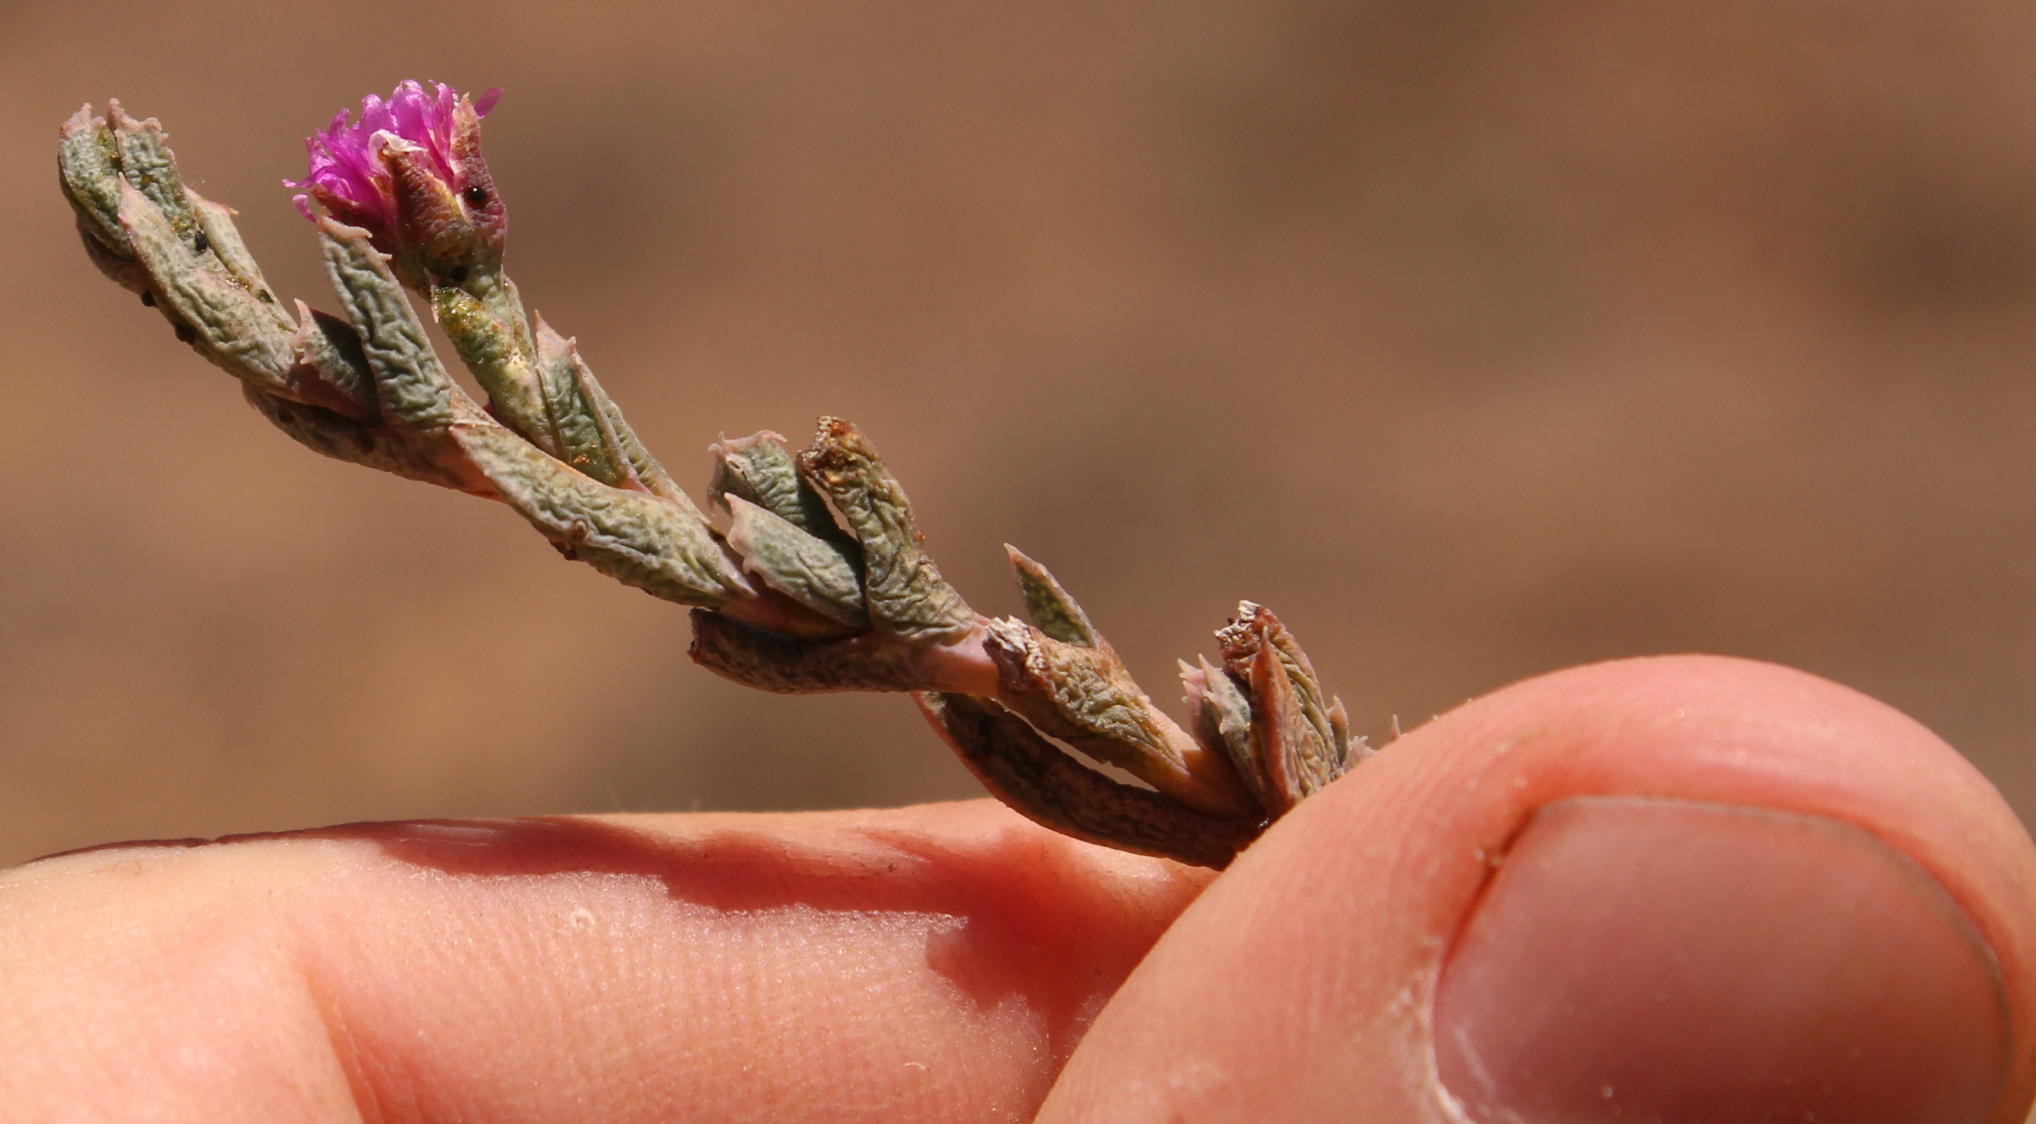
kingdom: Plantae
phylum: Tracheophyta
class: Magnoliopsida
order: Caryophyllales
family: Aizoaceae
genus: Ruschia
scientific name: Ruschia calcarea
